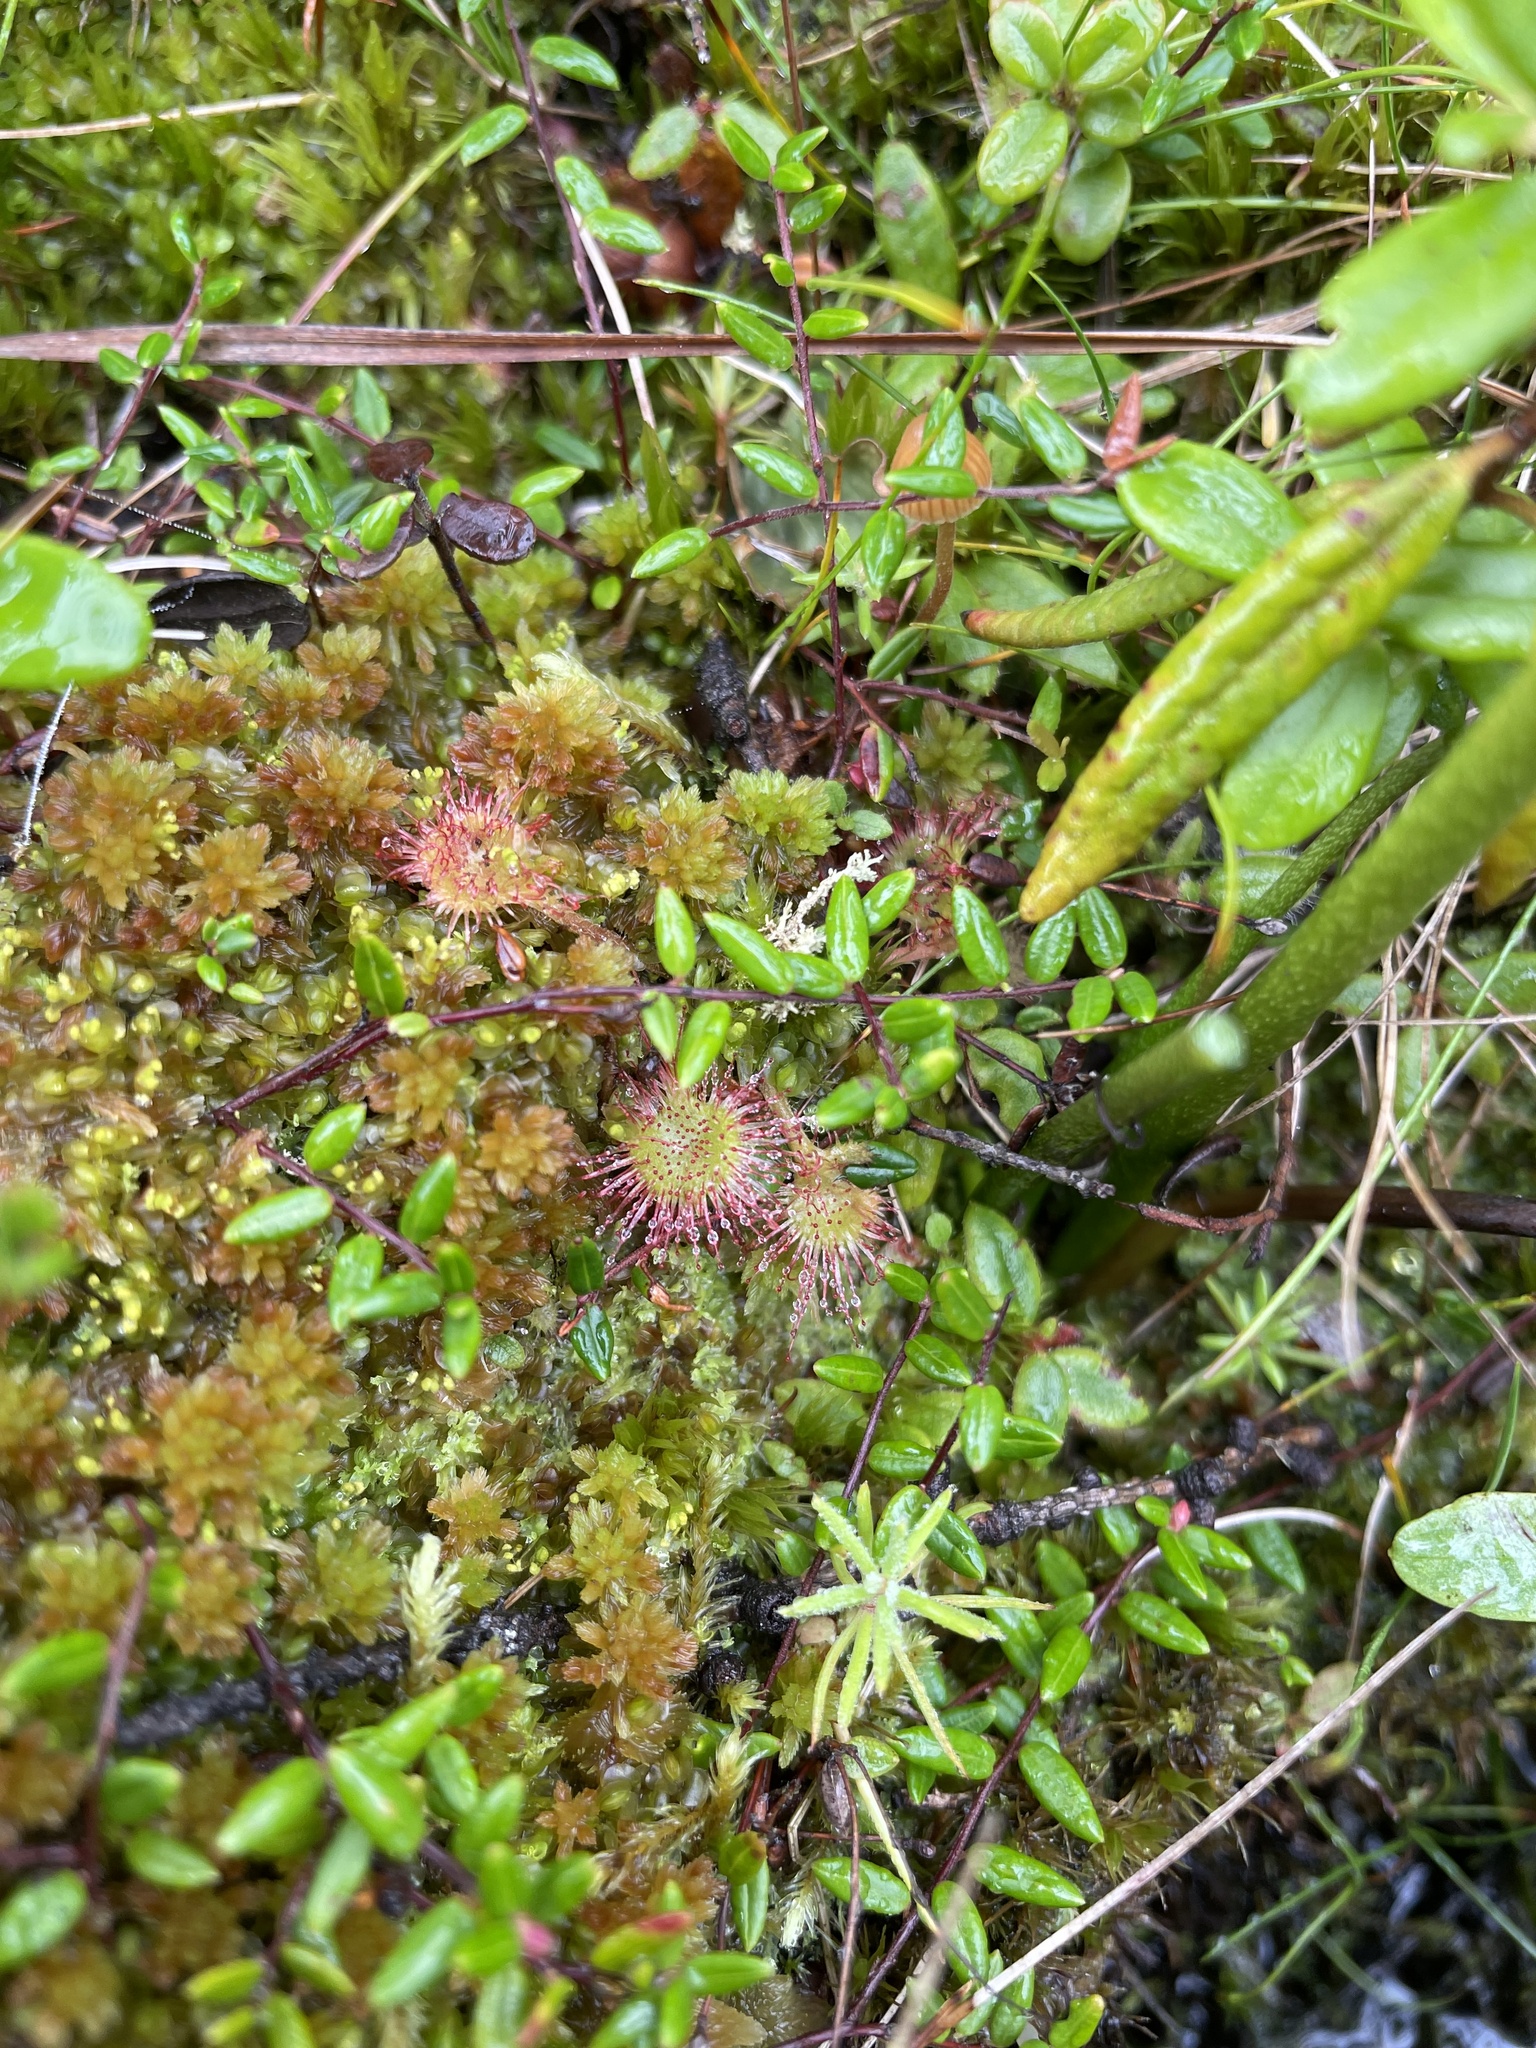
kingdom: Plantae
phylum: Tracheophyta
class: Magnoliopsida
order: Caryophyllales
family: Droseraceae
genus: Drosera
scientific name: Drosera rotundifolia
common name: Round-leaved sundew
